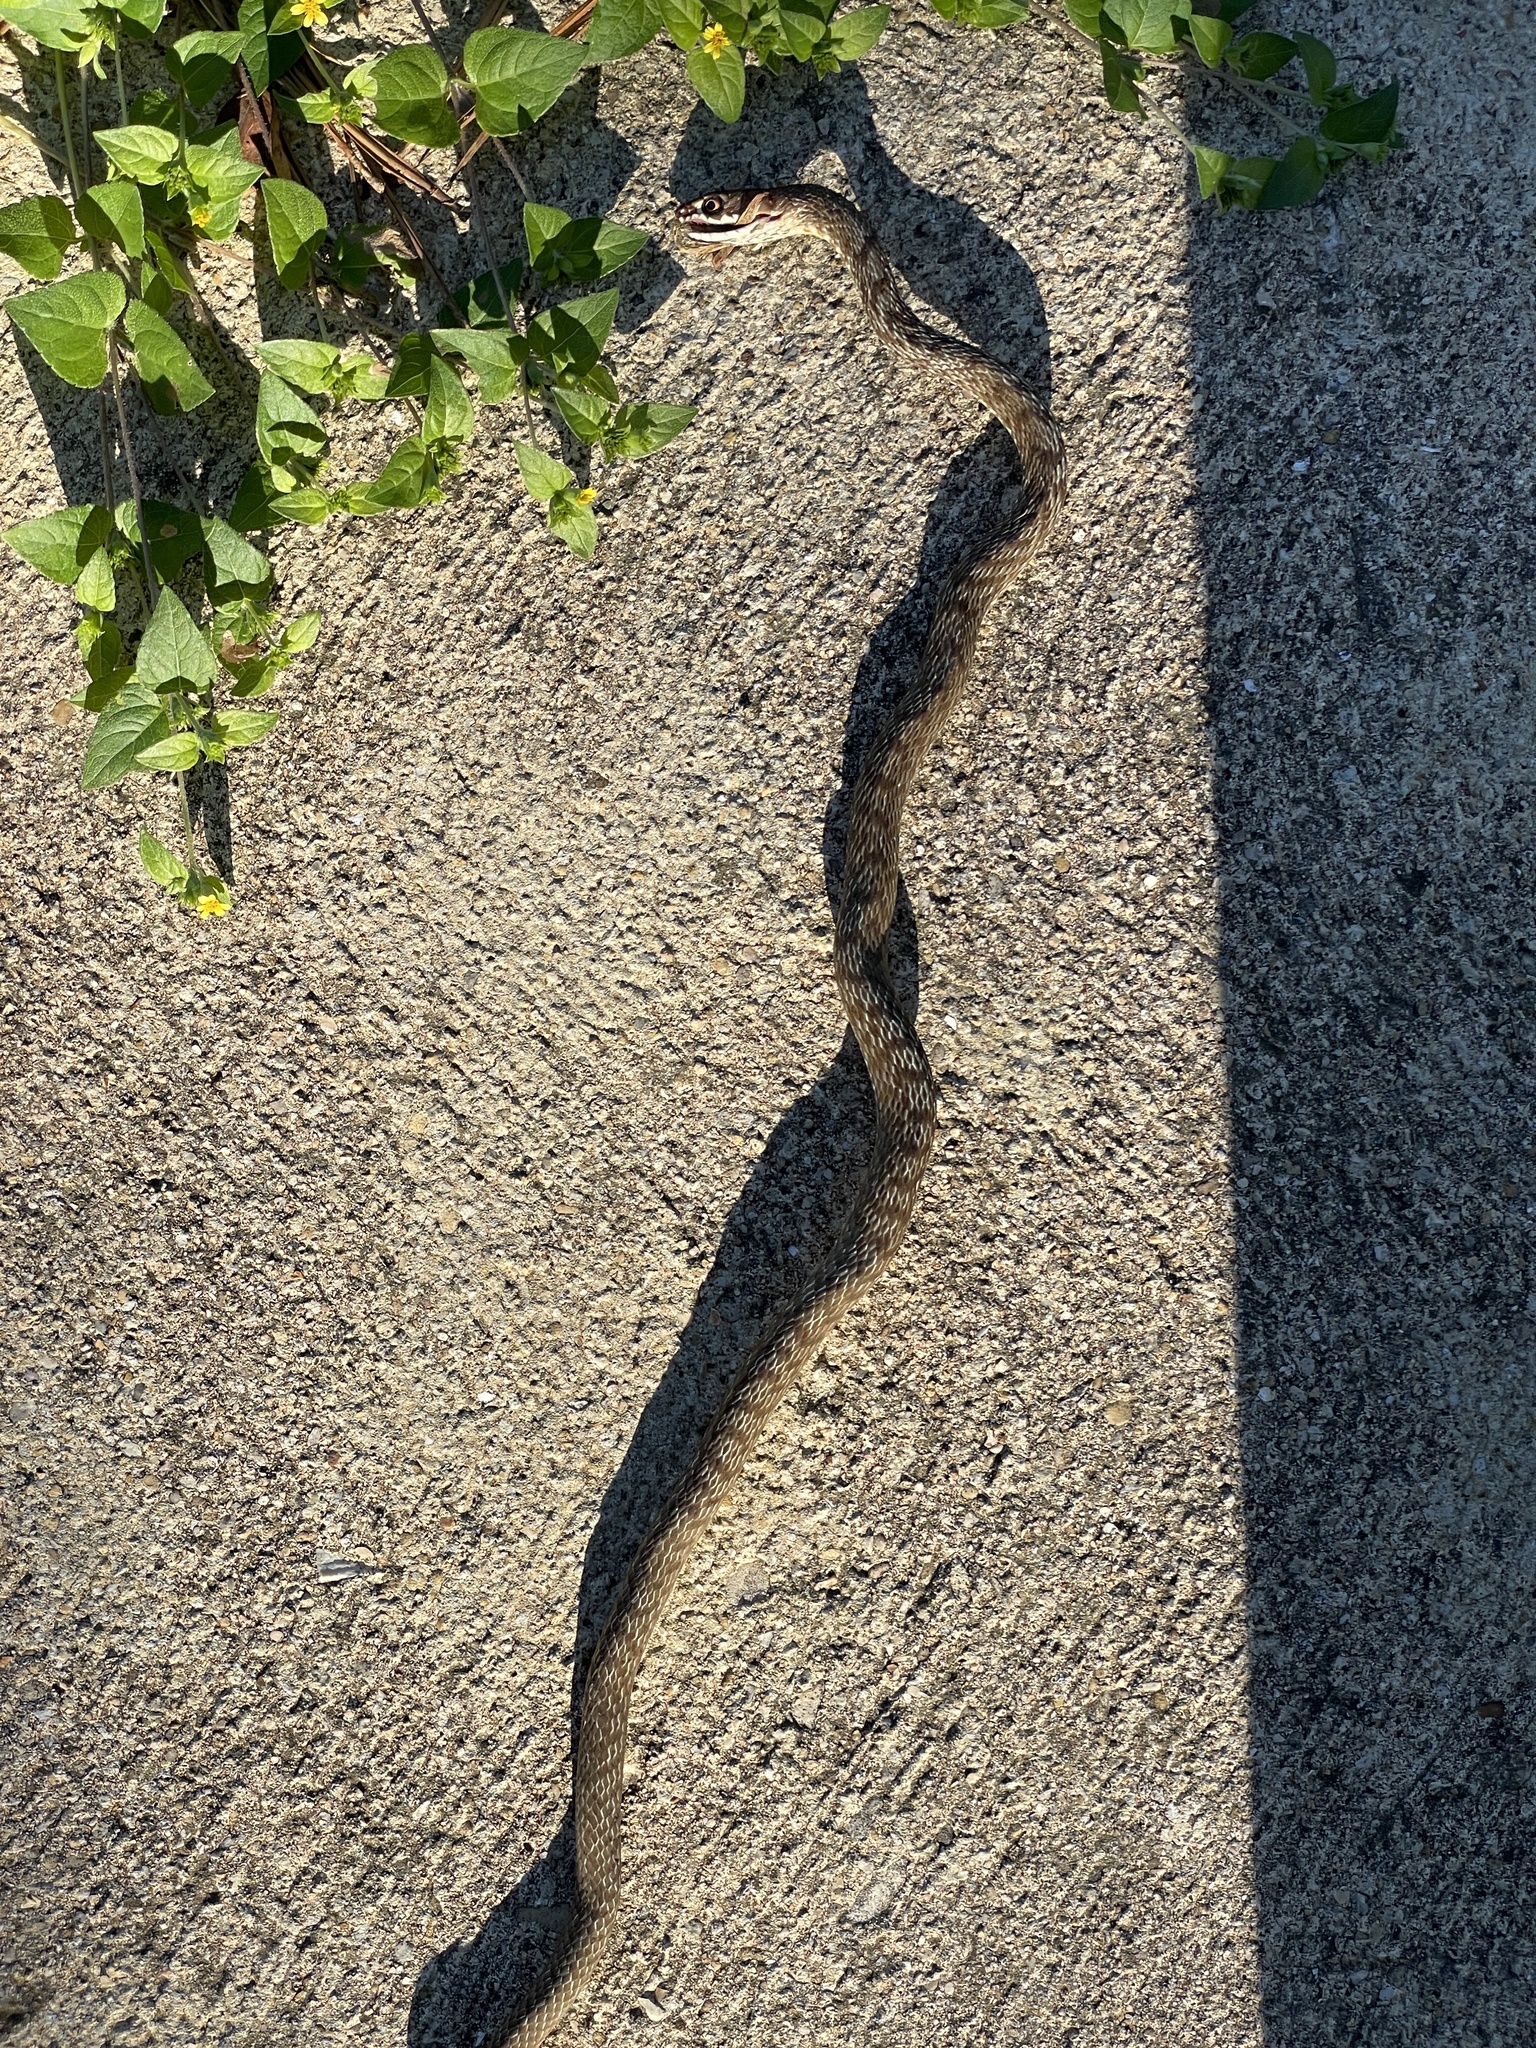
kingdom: Animalia
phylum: Chordata
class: Squamata
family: Colubridae
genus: Masticophis
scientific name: Masticophis flagellum
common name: Coachwhip
